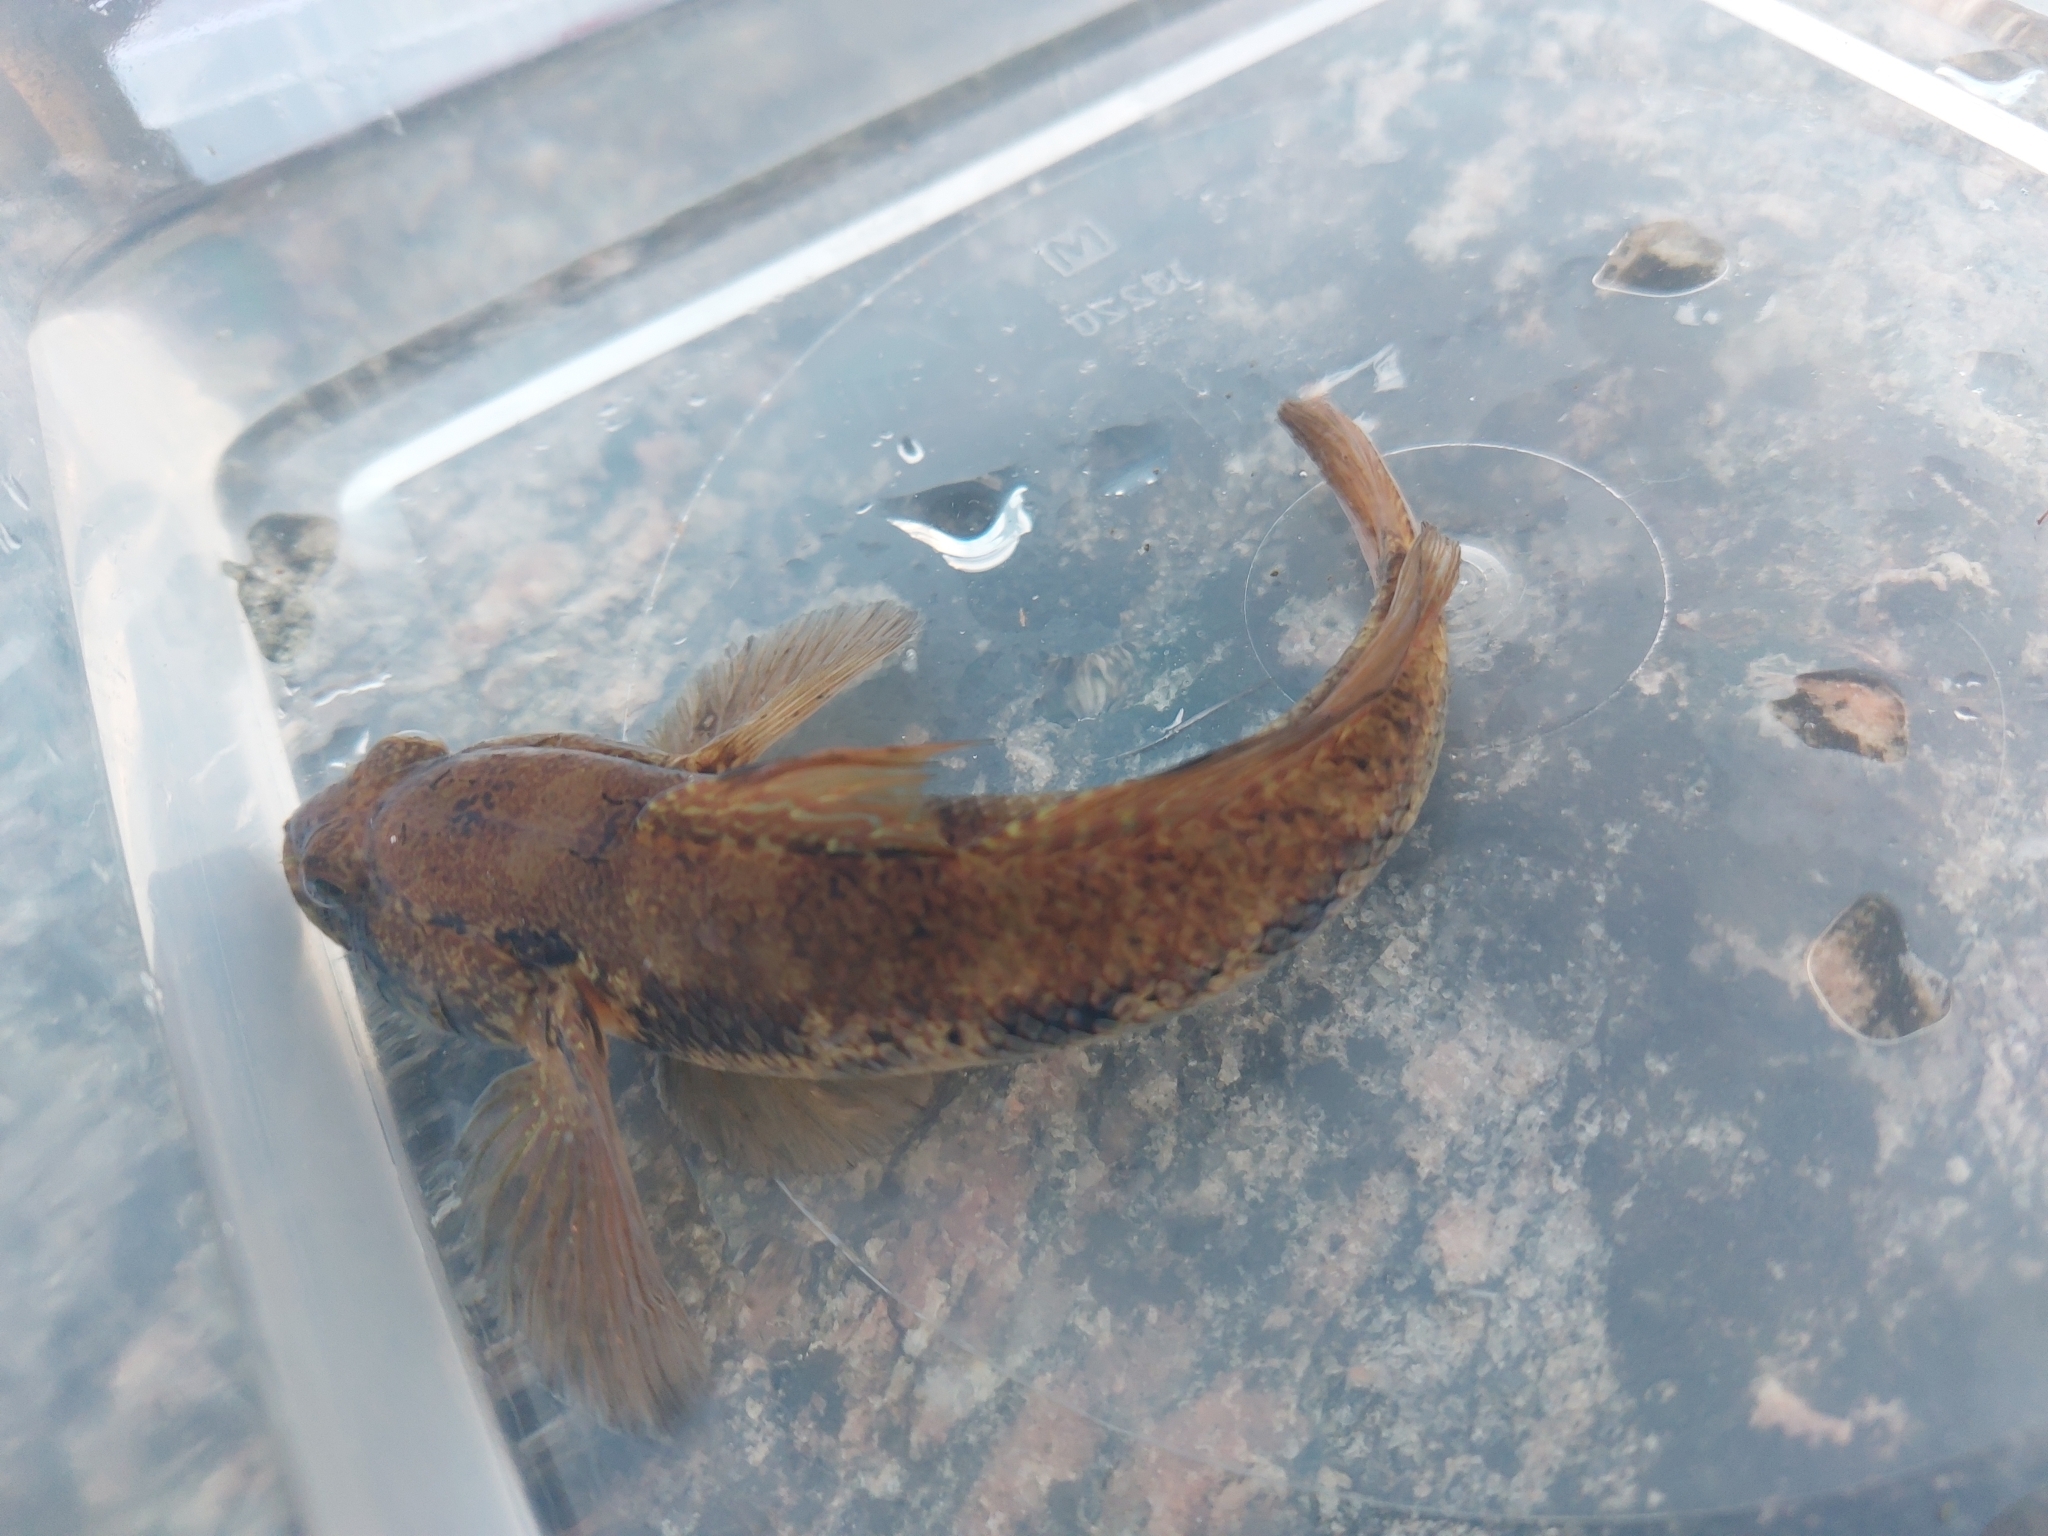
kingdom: Animalia
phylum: Chordata
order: Perciformes
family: Gobiidae
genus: Gobius
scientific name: Gobius niger
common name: Black goby
